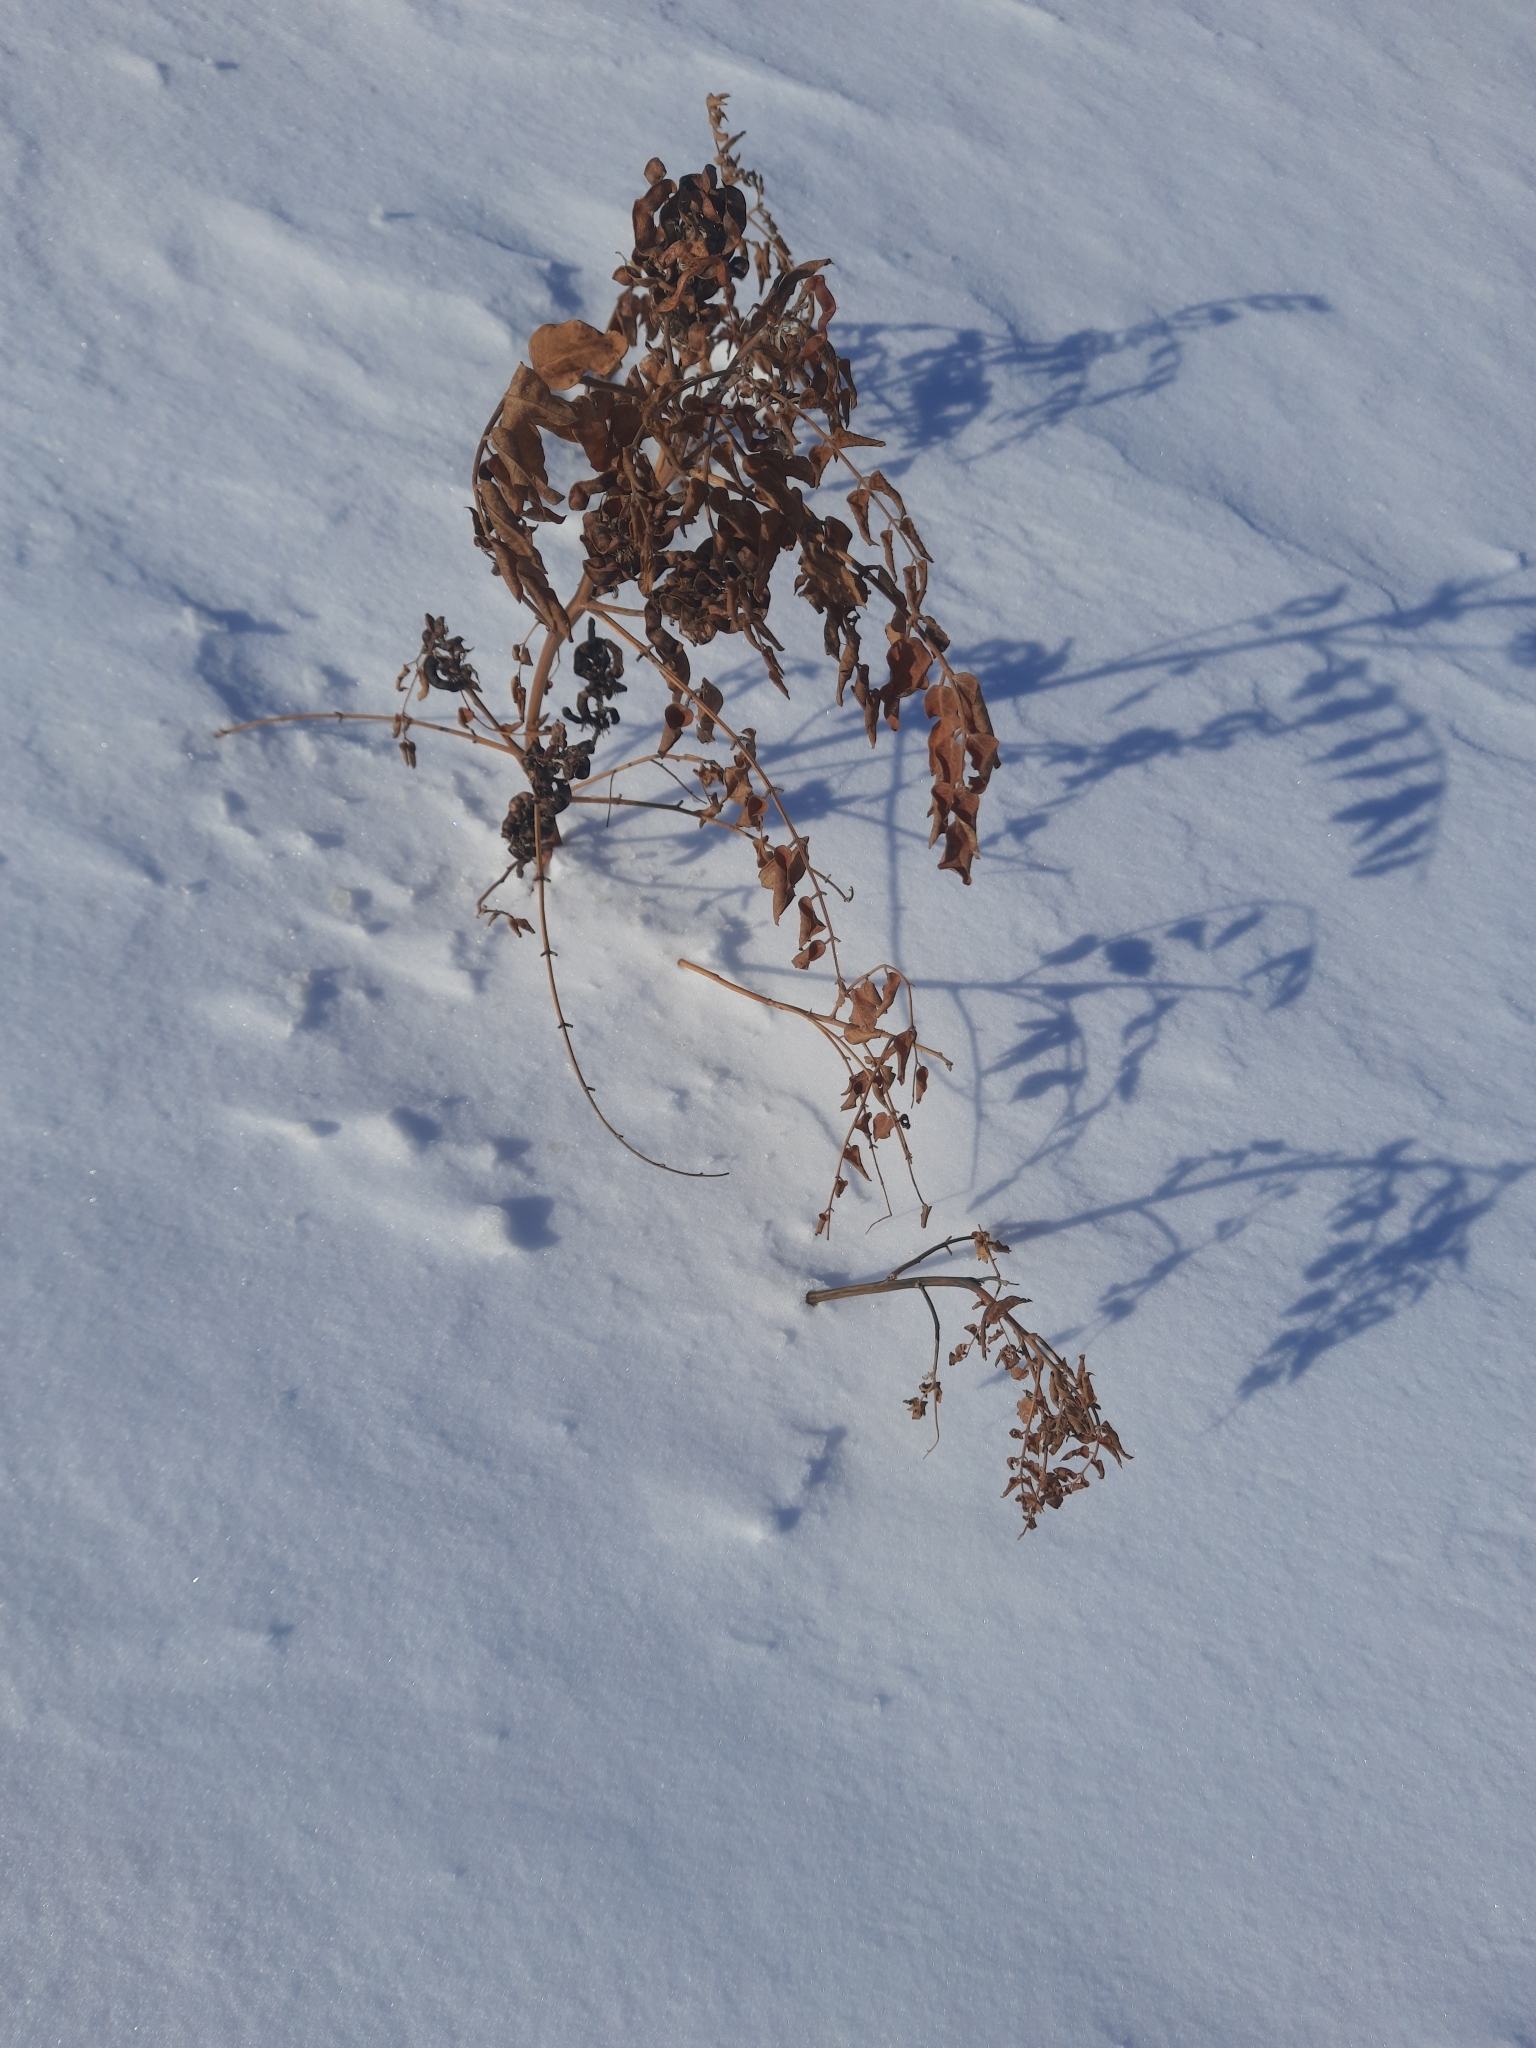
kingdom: Plantae
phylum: Tracheophyta
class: Magnoliopsida
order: Fabales
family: Fabaceae
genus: Glycyrrhiza
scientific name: Glycyrrhiza uralensis
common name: Chinese licorice
